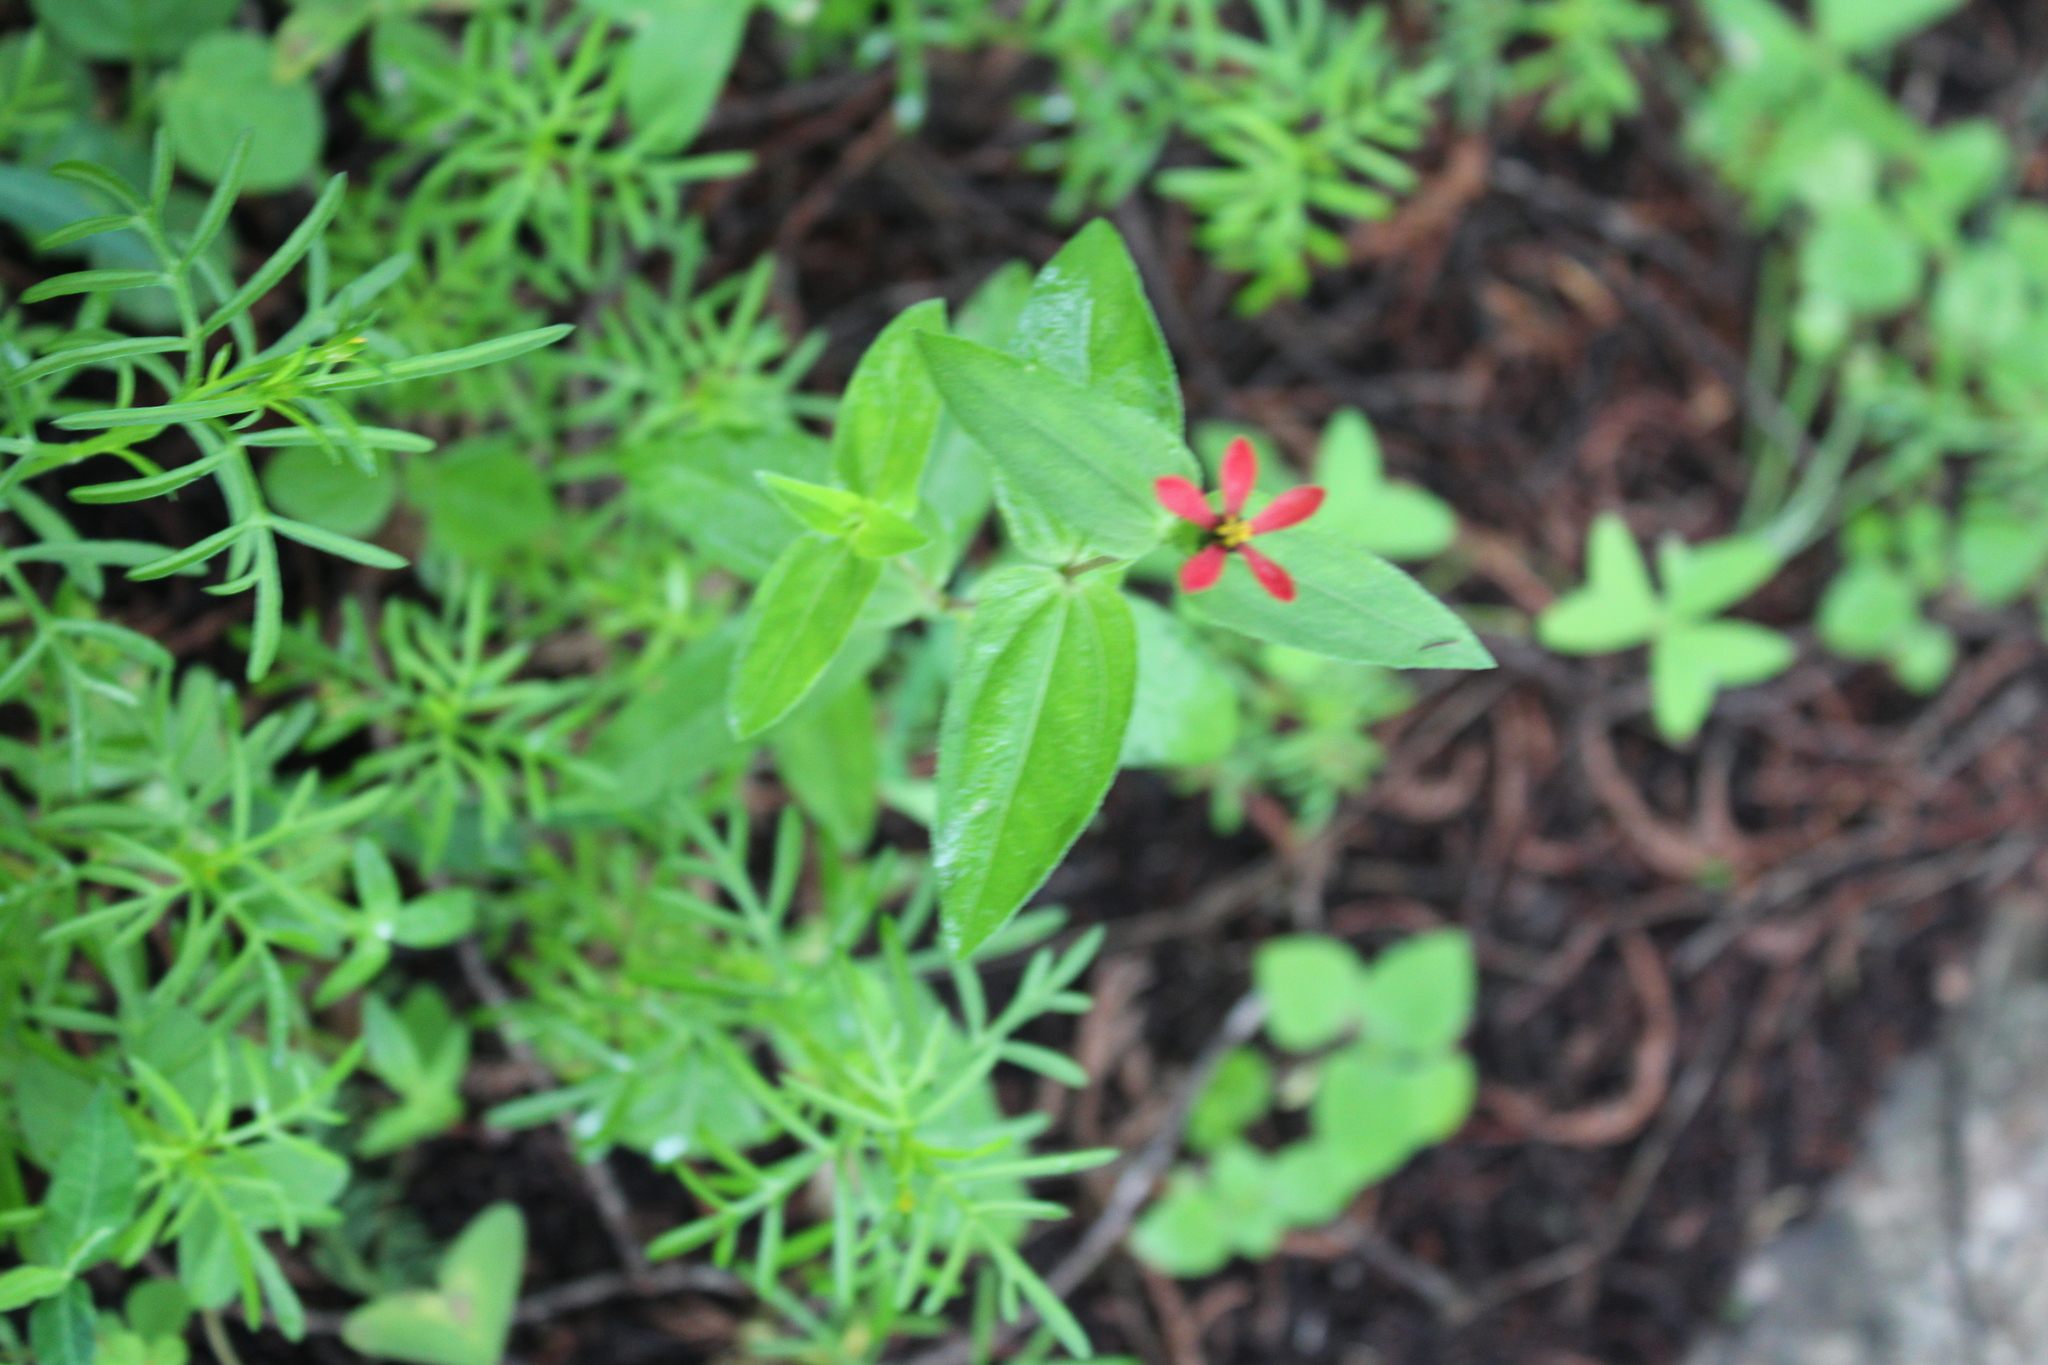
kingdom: Plantae
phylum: Tracheophyta
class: Magnoliopsida
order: Asterales
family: Asteraceae
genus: Zinnia
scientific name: Zinnia peruviana
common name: Peruvian zinnia
